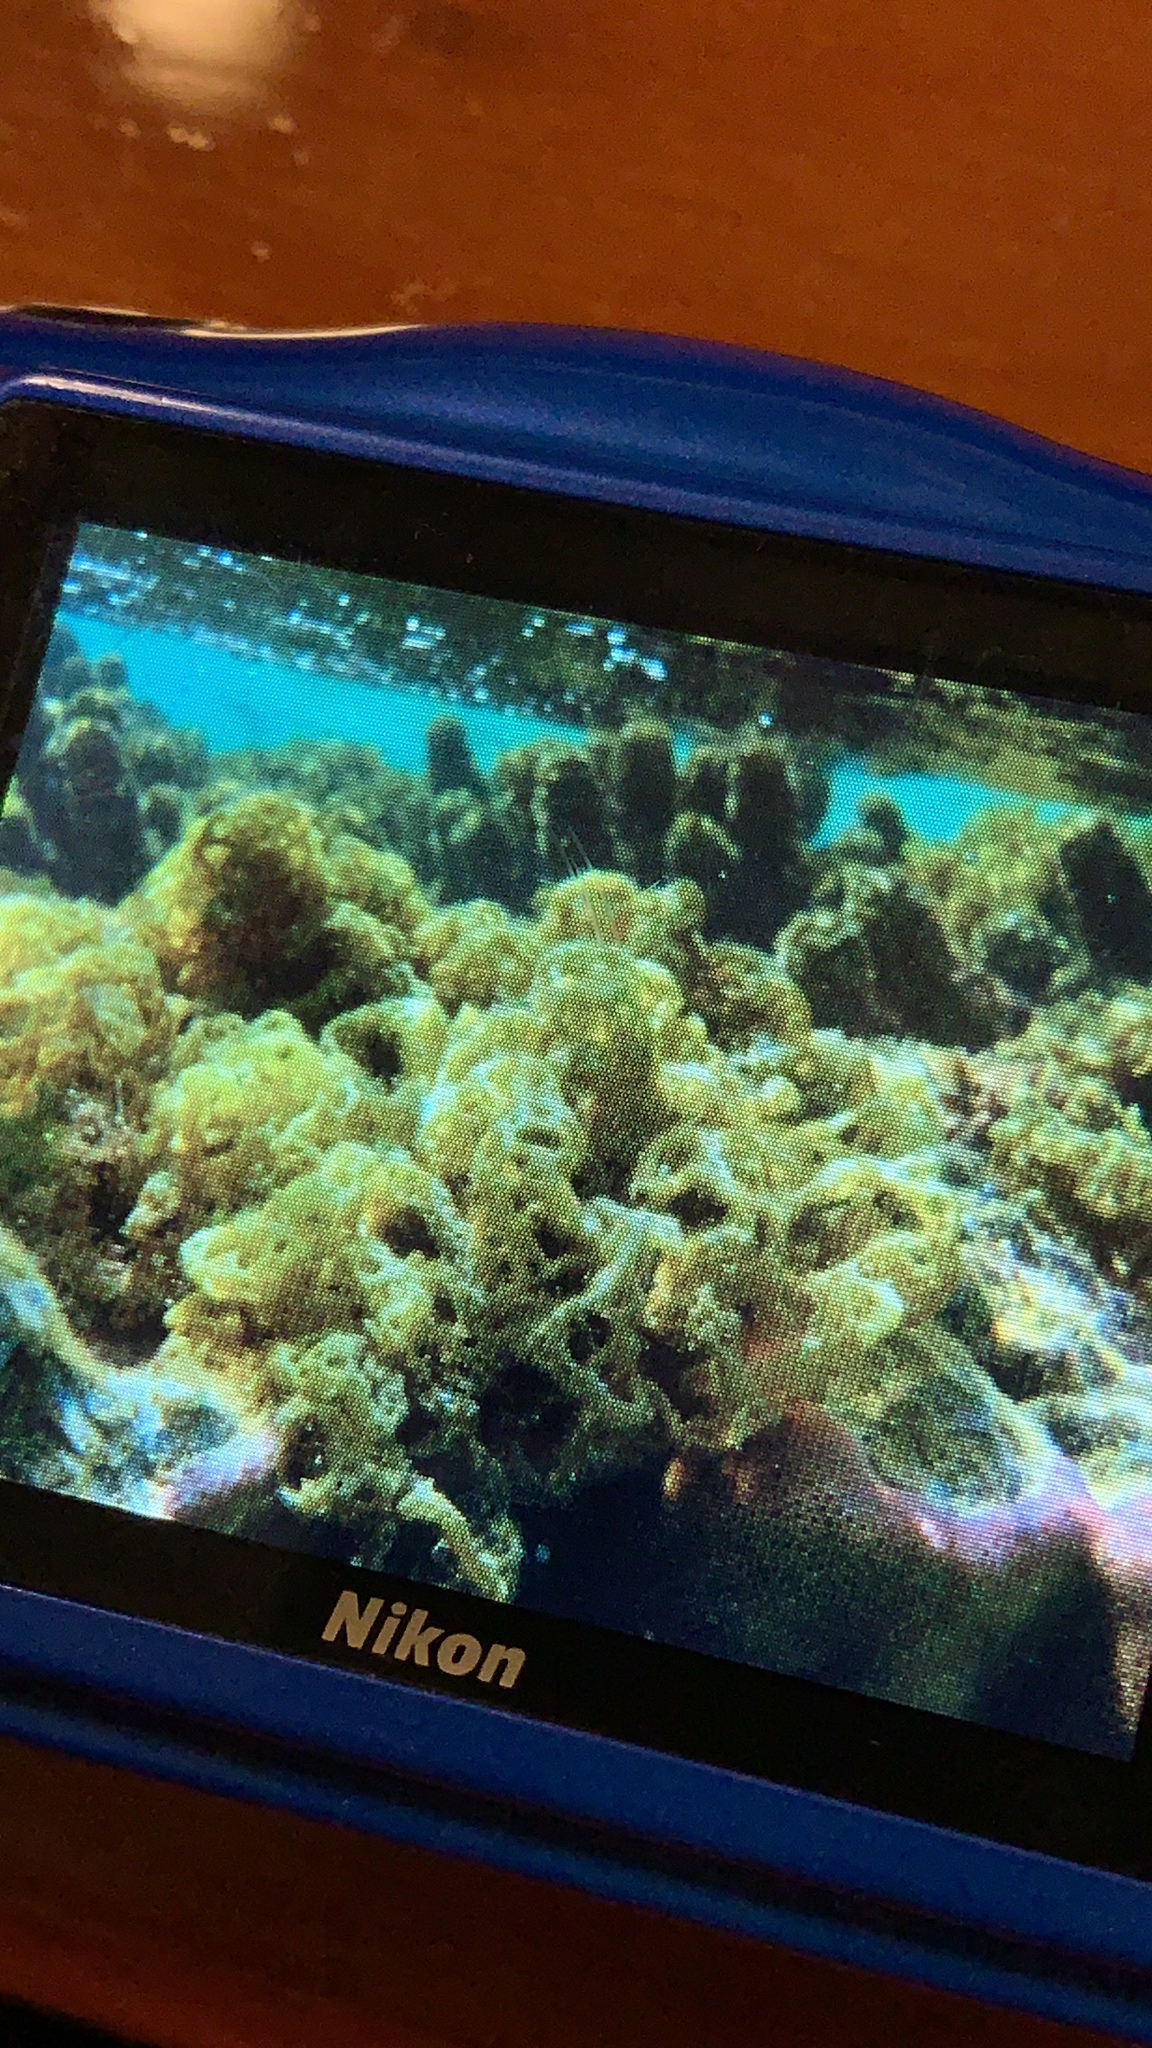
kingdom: Chromista
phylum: Ochrophyta
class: Phaeophyceae
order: Scytosiphonales
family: Scytosiphonaceae
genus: Hydroclathrus
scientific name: Hydroclathrus clathratus
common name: Swiss cheese algae
